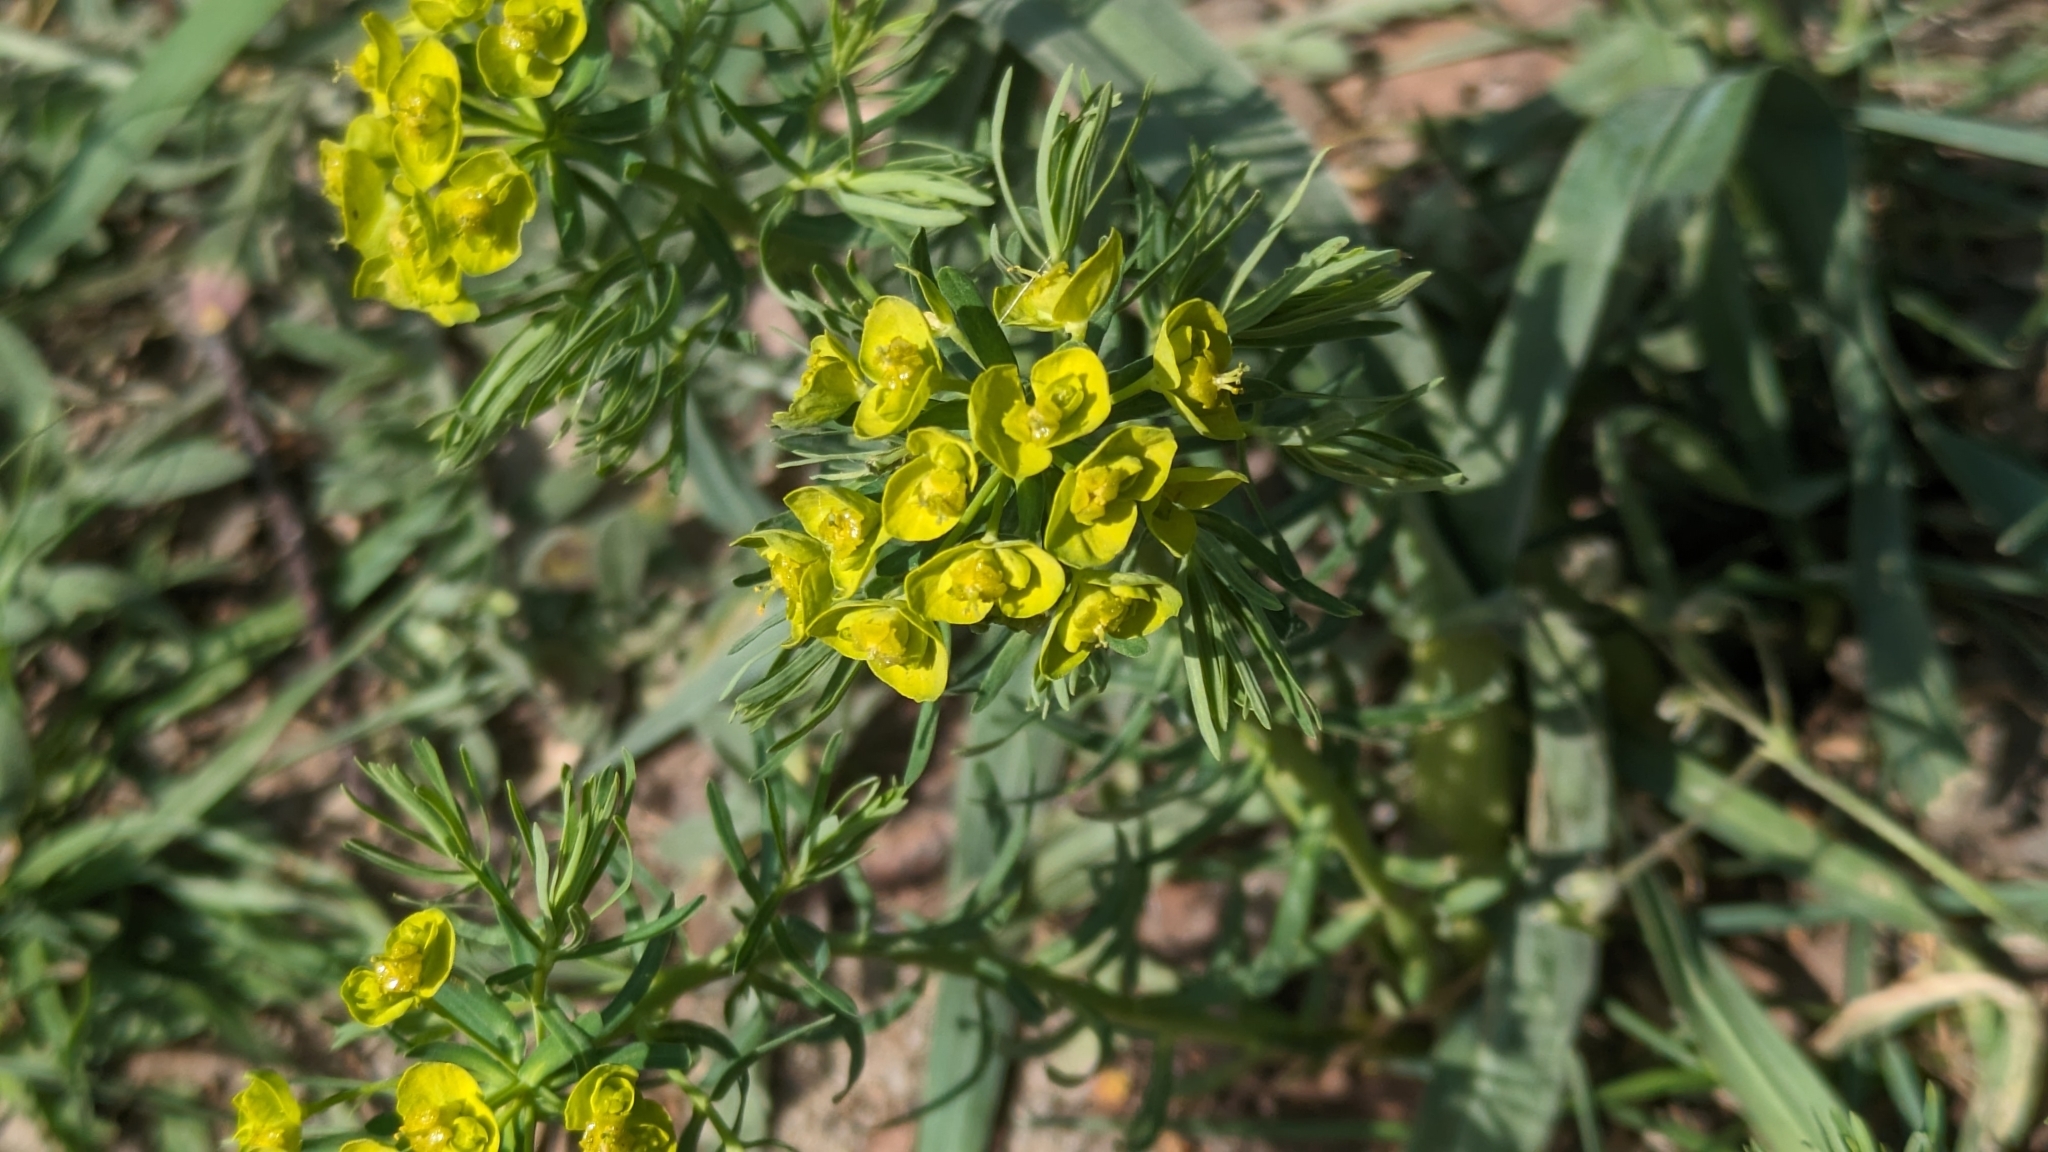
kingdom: Plantae
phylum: Tracheophyta
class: Magnoliopsida
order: Malpighiales
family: Euphorbiaceae
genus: Euphorbia
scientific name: Euphorbia cyparissias
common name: Cypress spurge
